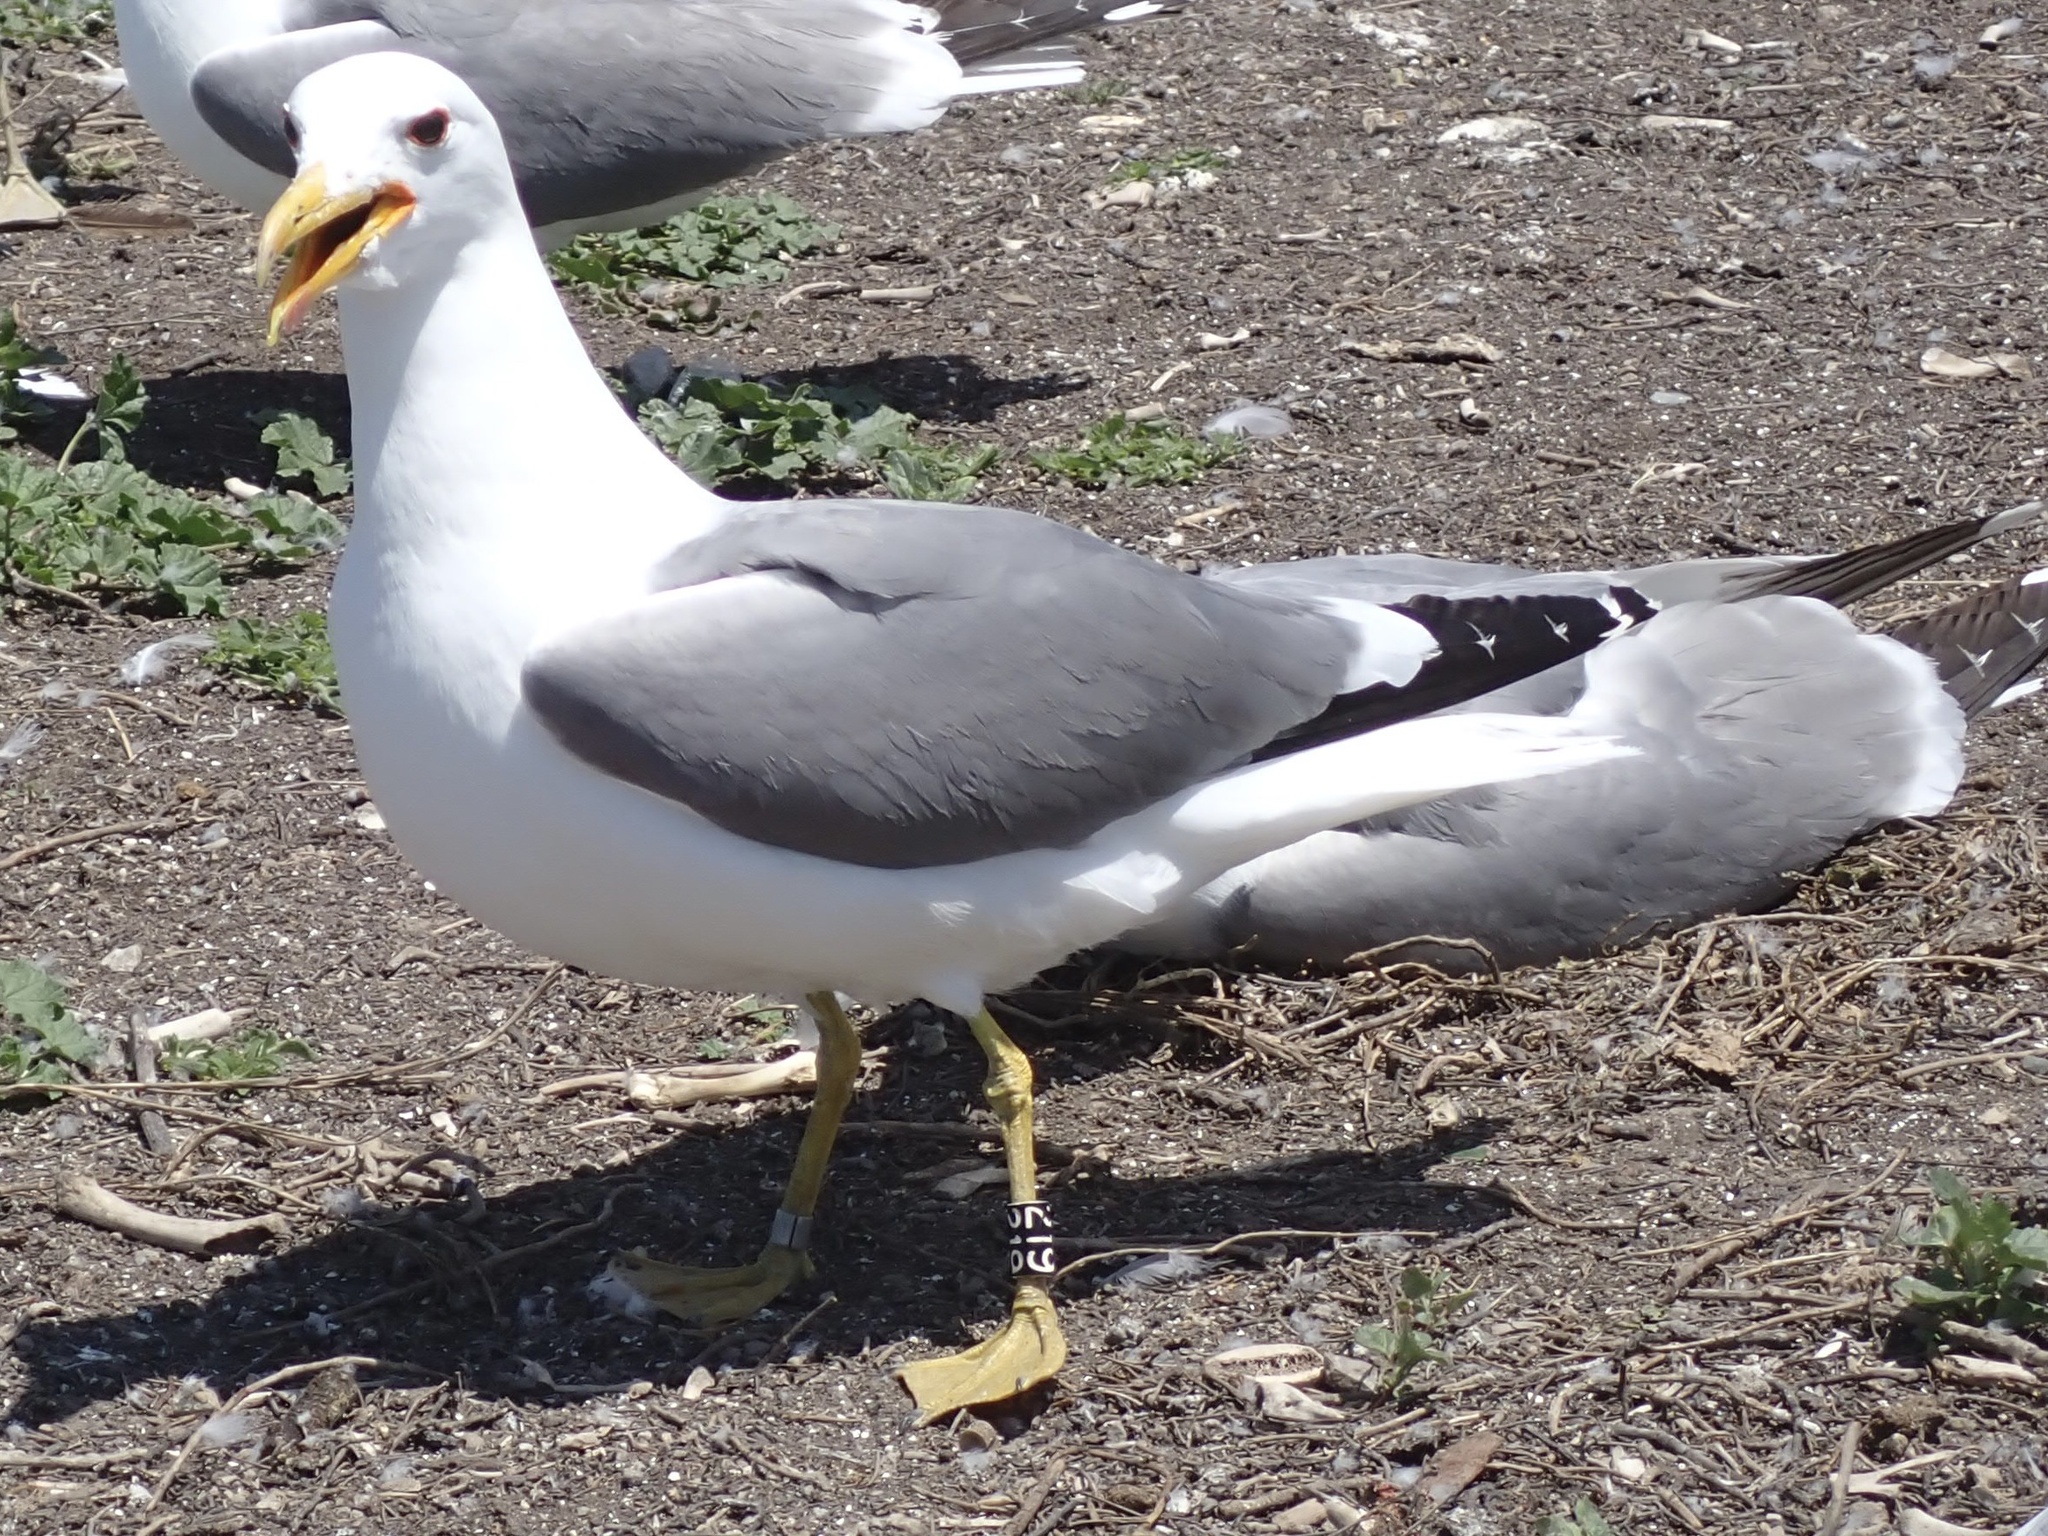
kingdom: Animalia
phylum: Chordata
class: Aves
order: Charadriiformes
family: Laridae
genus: Larus
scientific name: Larus californicus
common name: California gull
